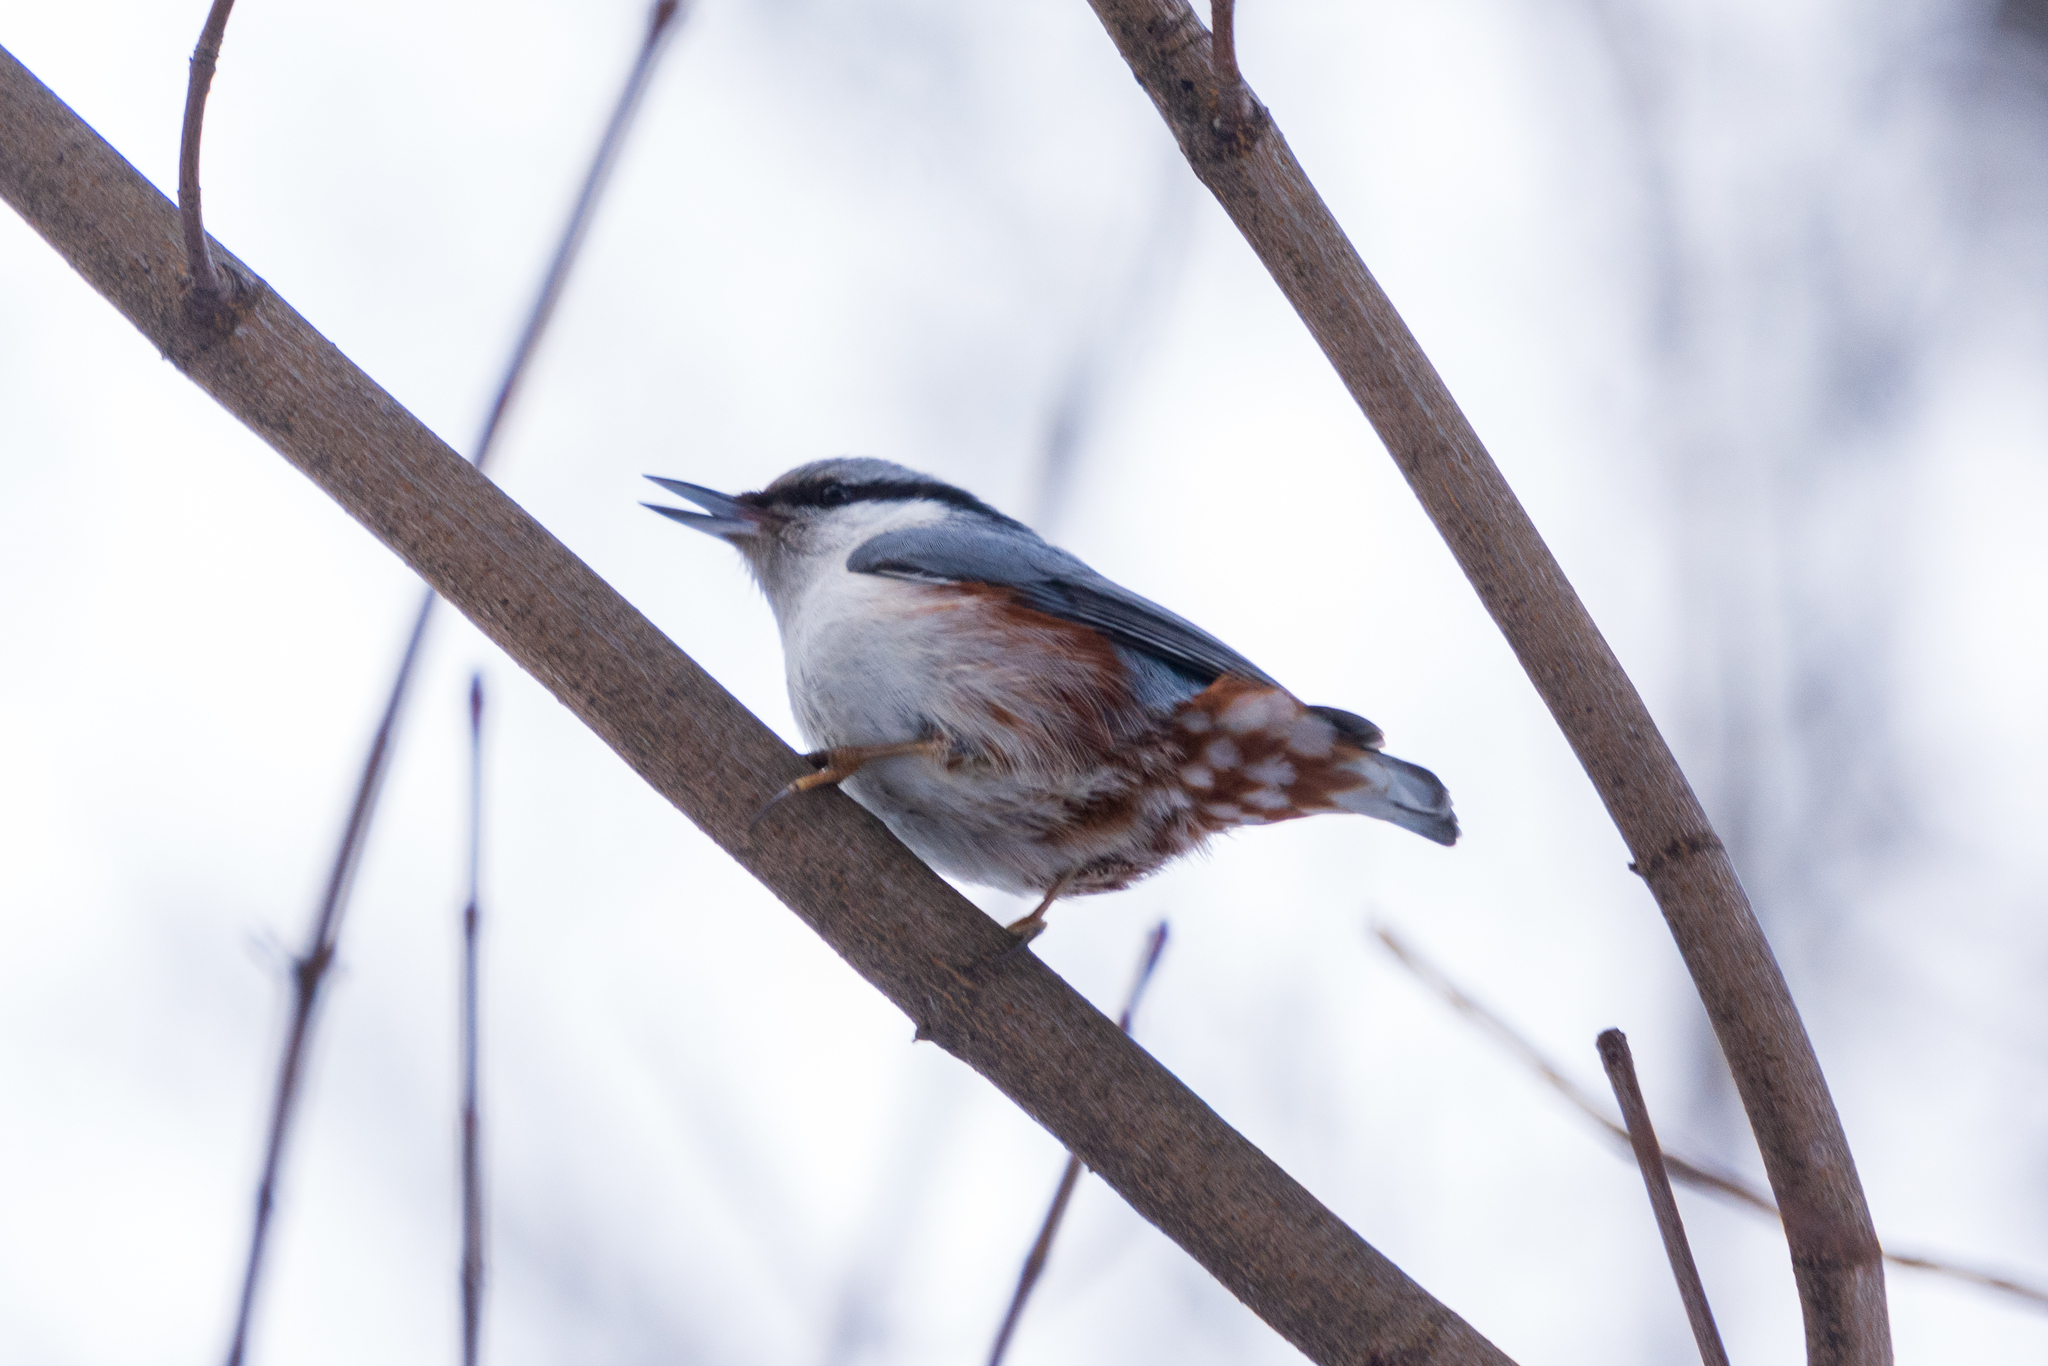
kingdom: Animalia
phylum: Chordata
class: Aves
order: Passeriformes
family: Sittidae
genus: Sitta
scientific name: Sitta europaea
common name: Eurasian nuthatch
